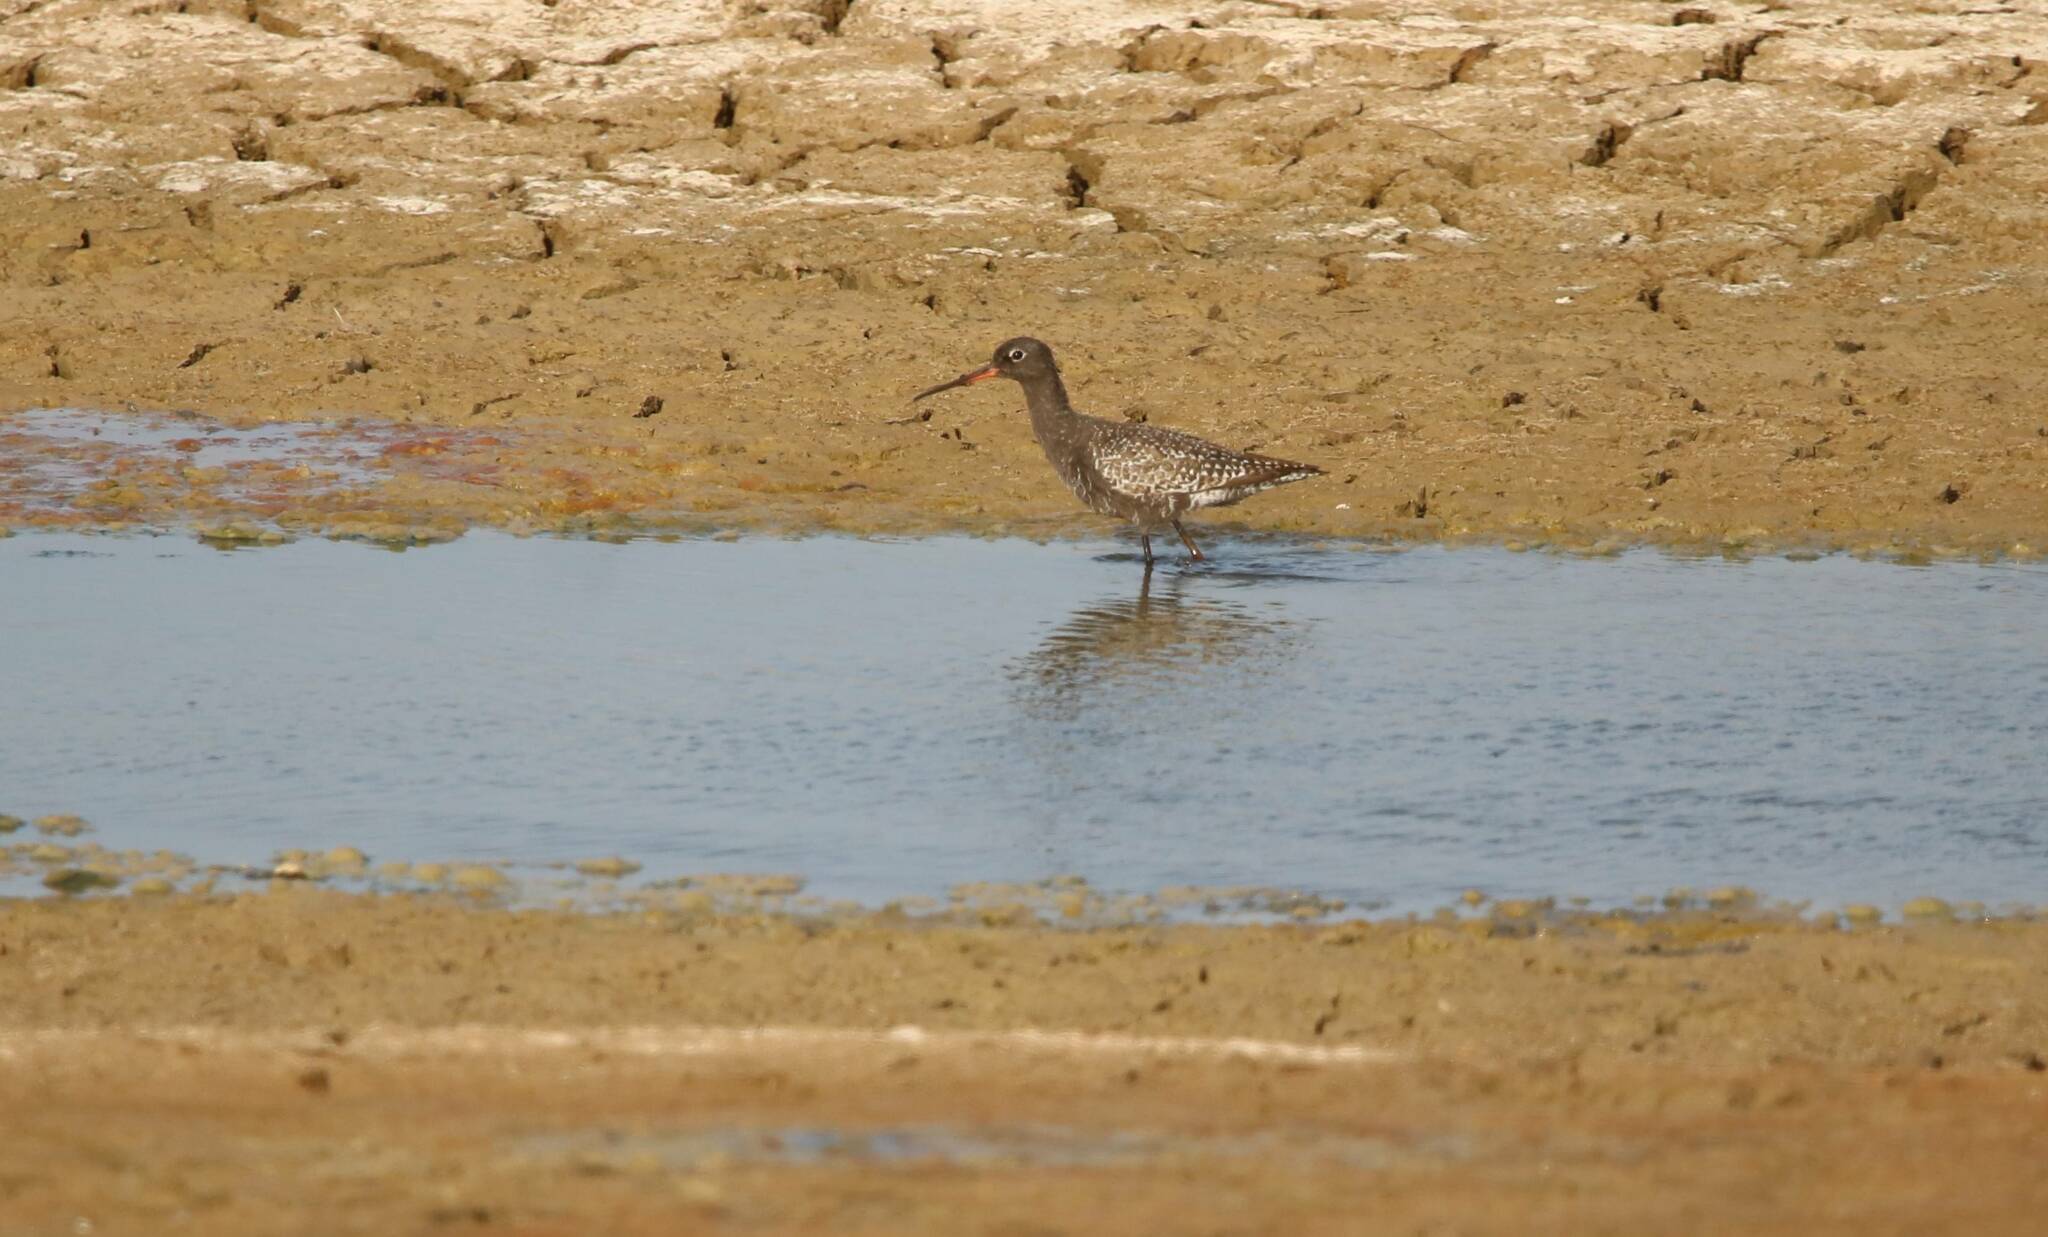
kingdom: Animalia
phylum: Chordata
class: Aves
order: Charadriiformes
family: Scolopacidae
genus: Tringa
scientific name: Tringa erythropus
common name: Spotted redshank
